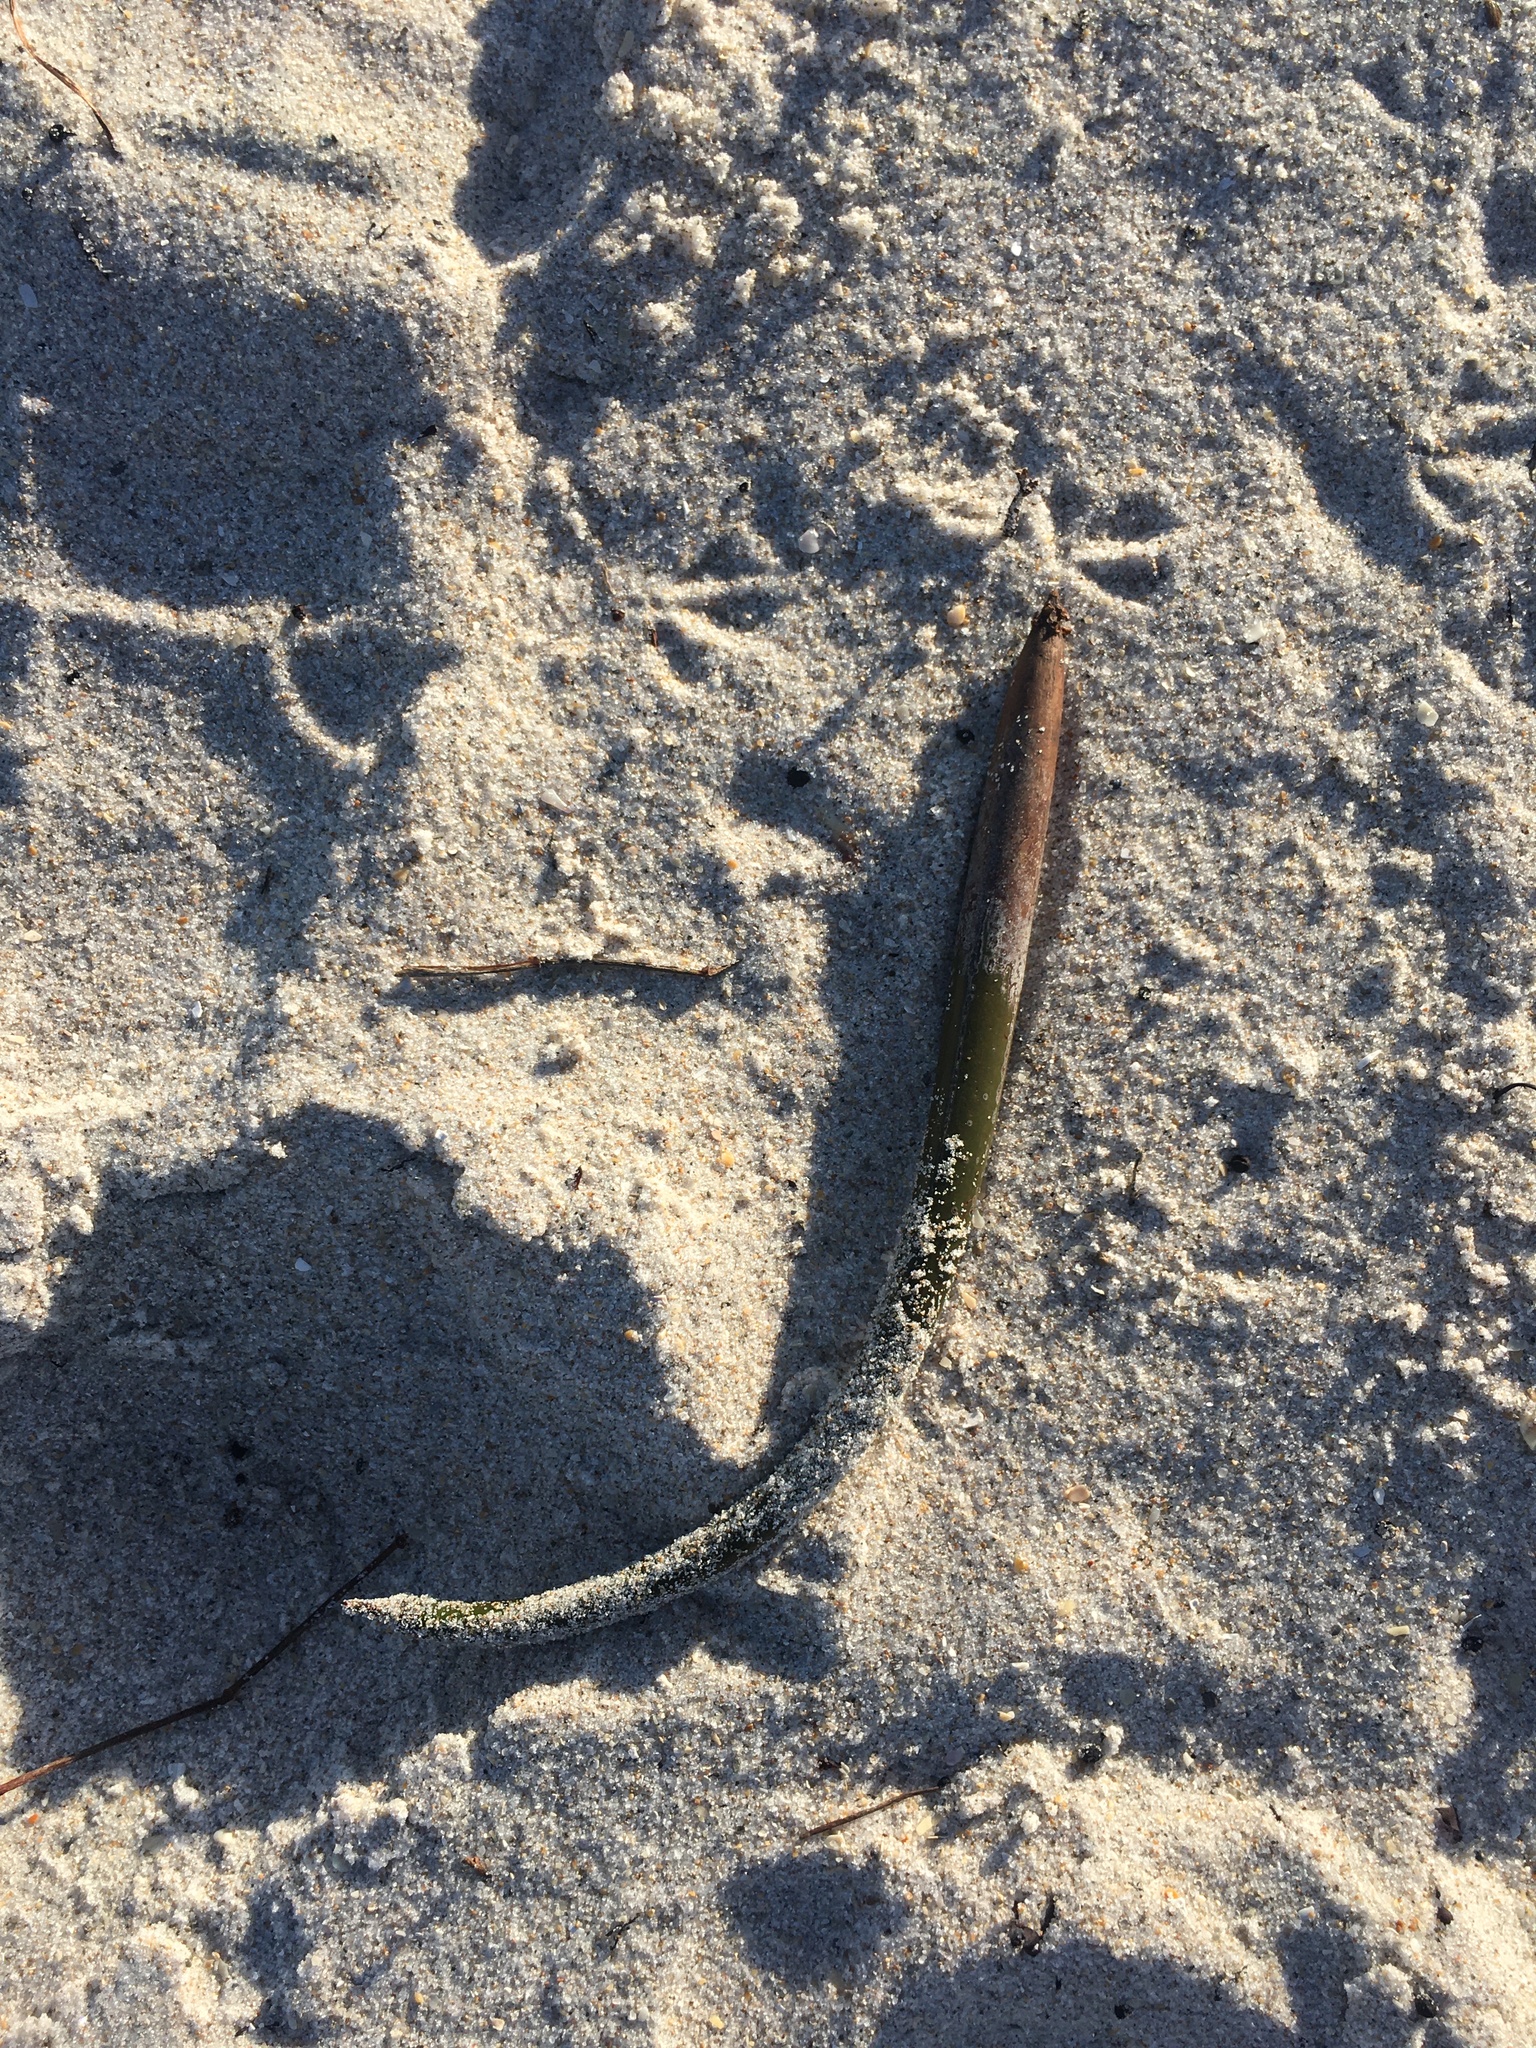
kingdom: Plantae
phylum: Tracheophyta
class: Magnoliopsida
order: Malpighiales
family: Rhizophoraceae
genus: Rhizophora
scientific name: Rhizophora mangle
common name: Red mangrove
